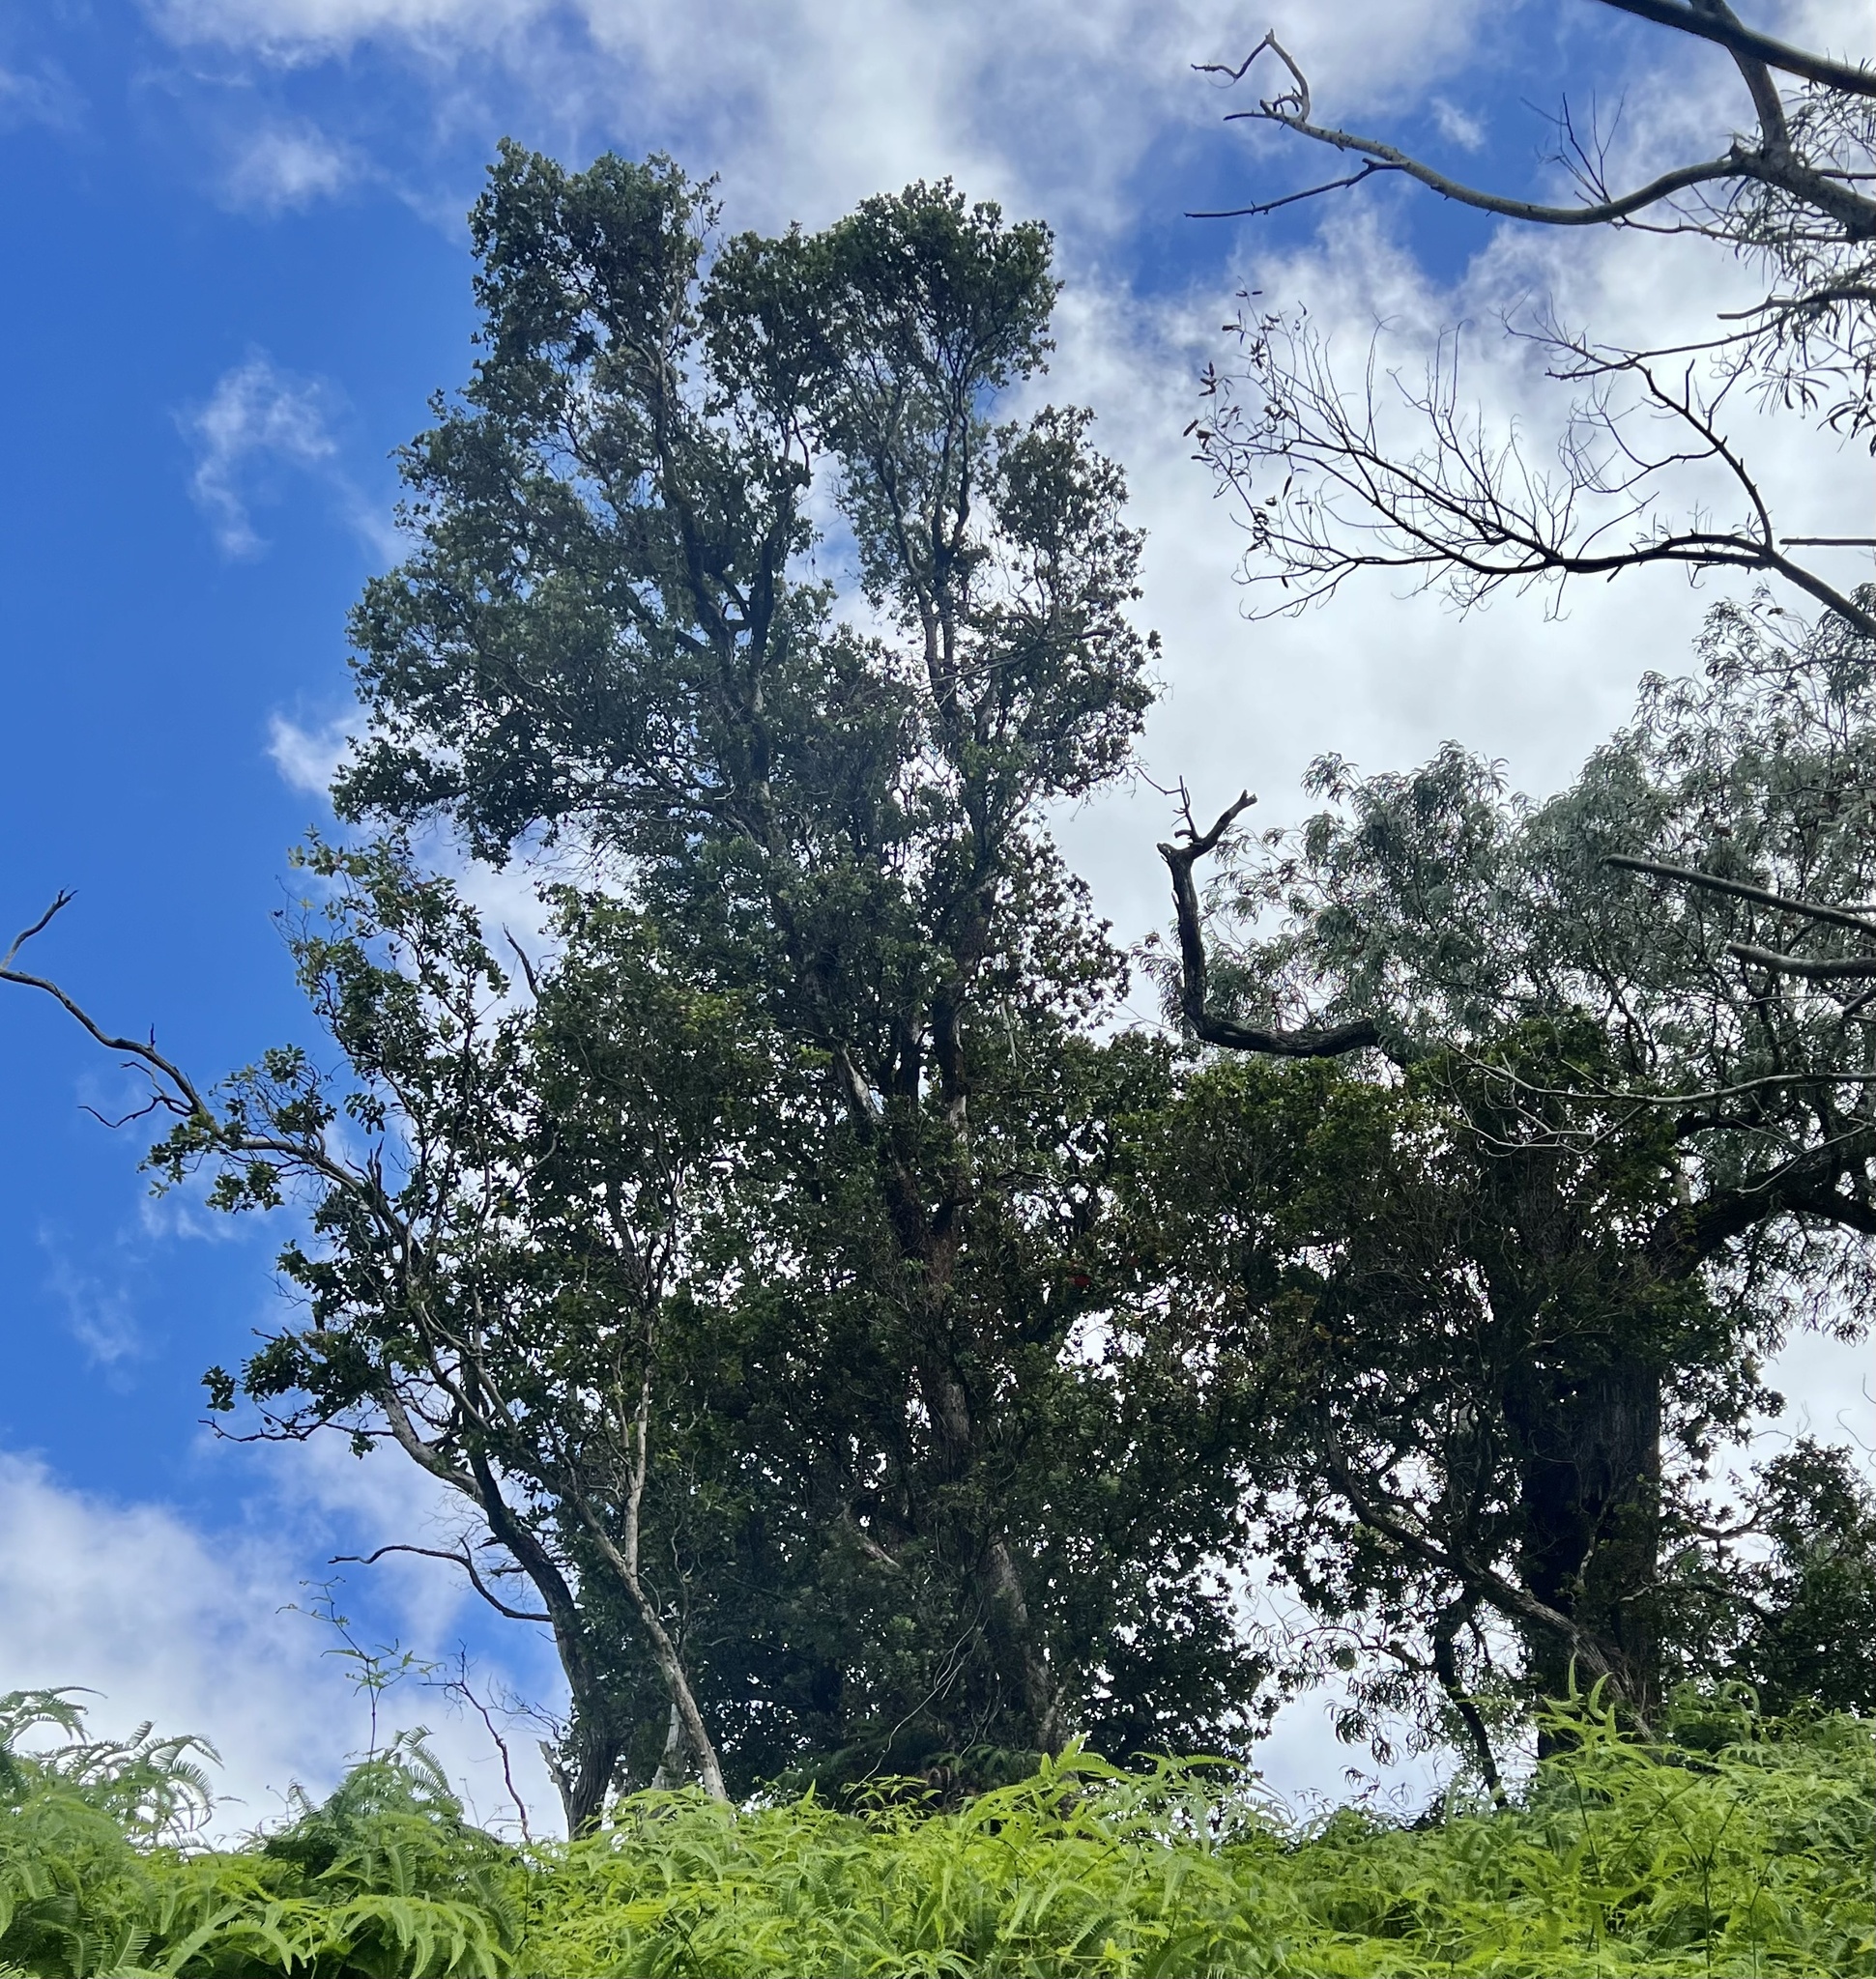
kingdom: Plantae
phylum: Tracheophyta
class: Magnoliopsida
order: Myrtales
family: Myrtaceae
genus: Metrosideros
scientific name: Metrosideros polymorpha
